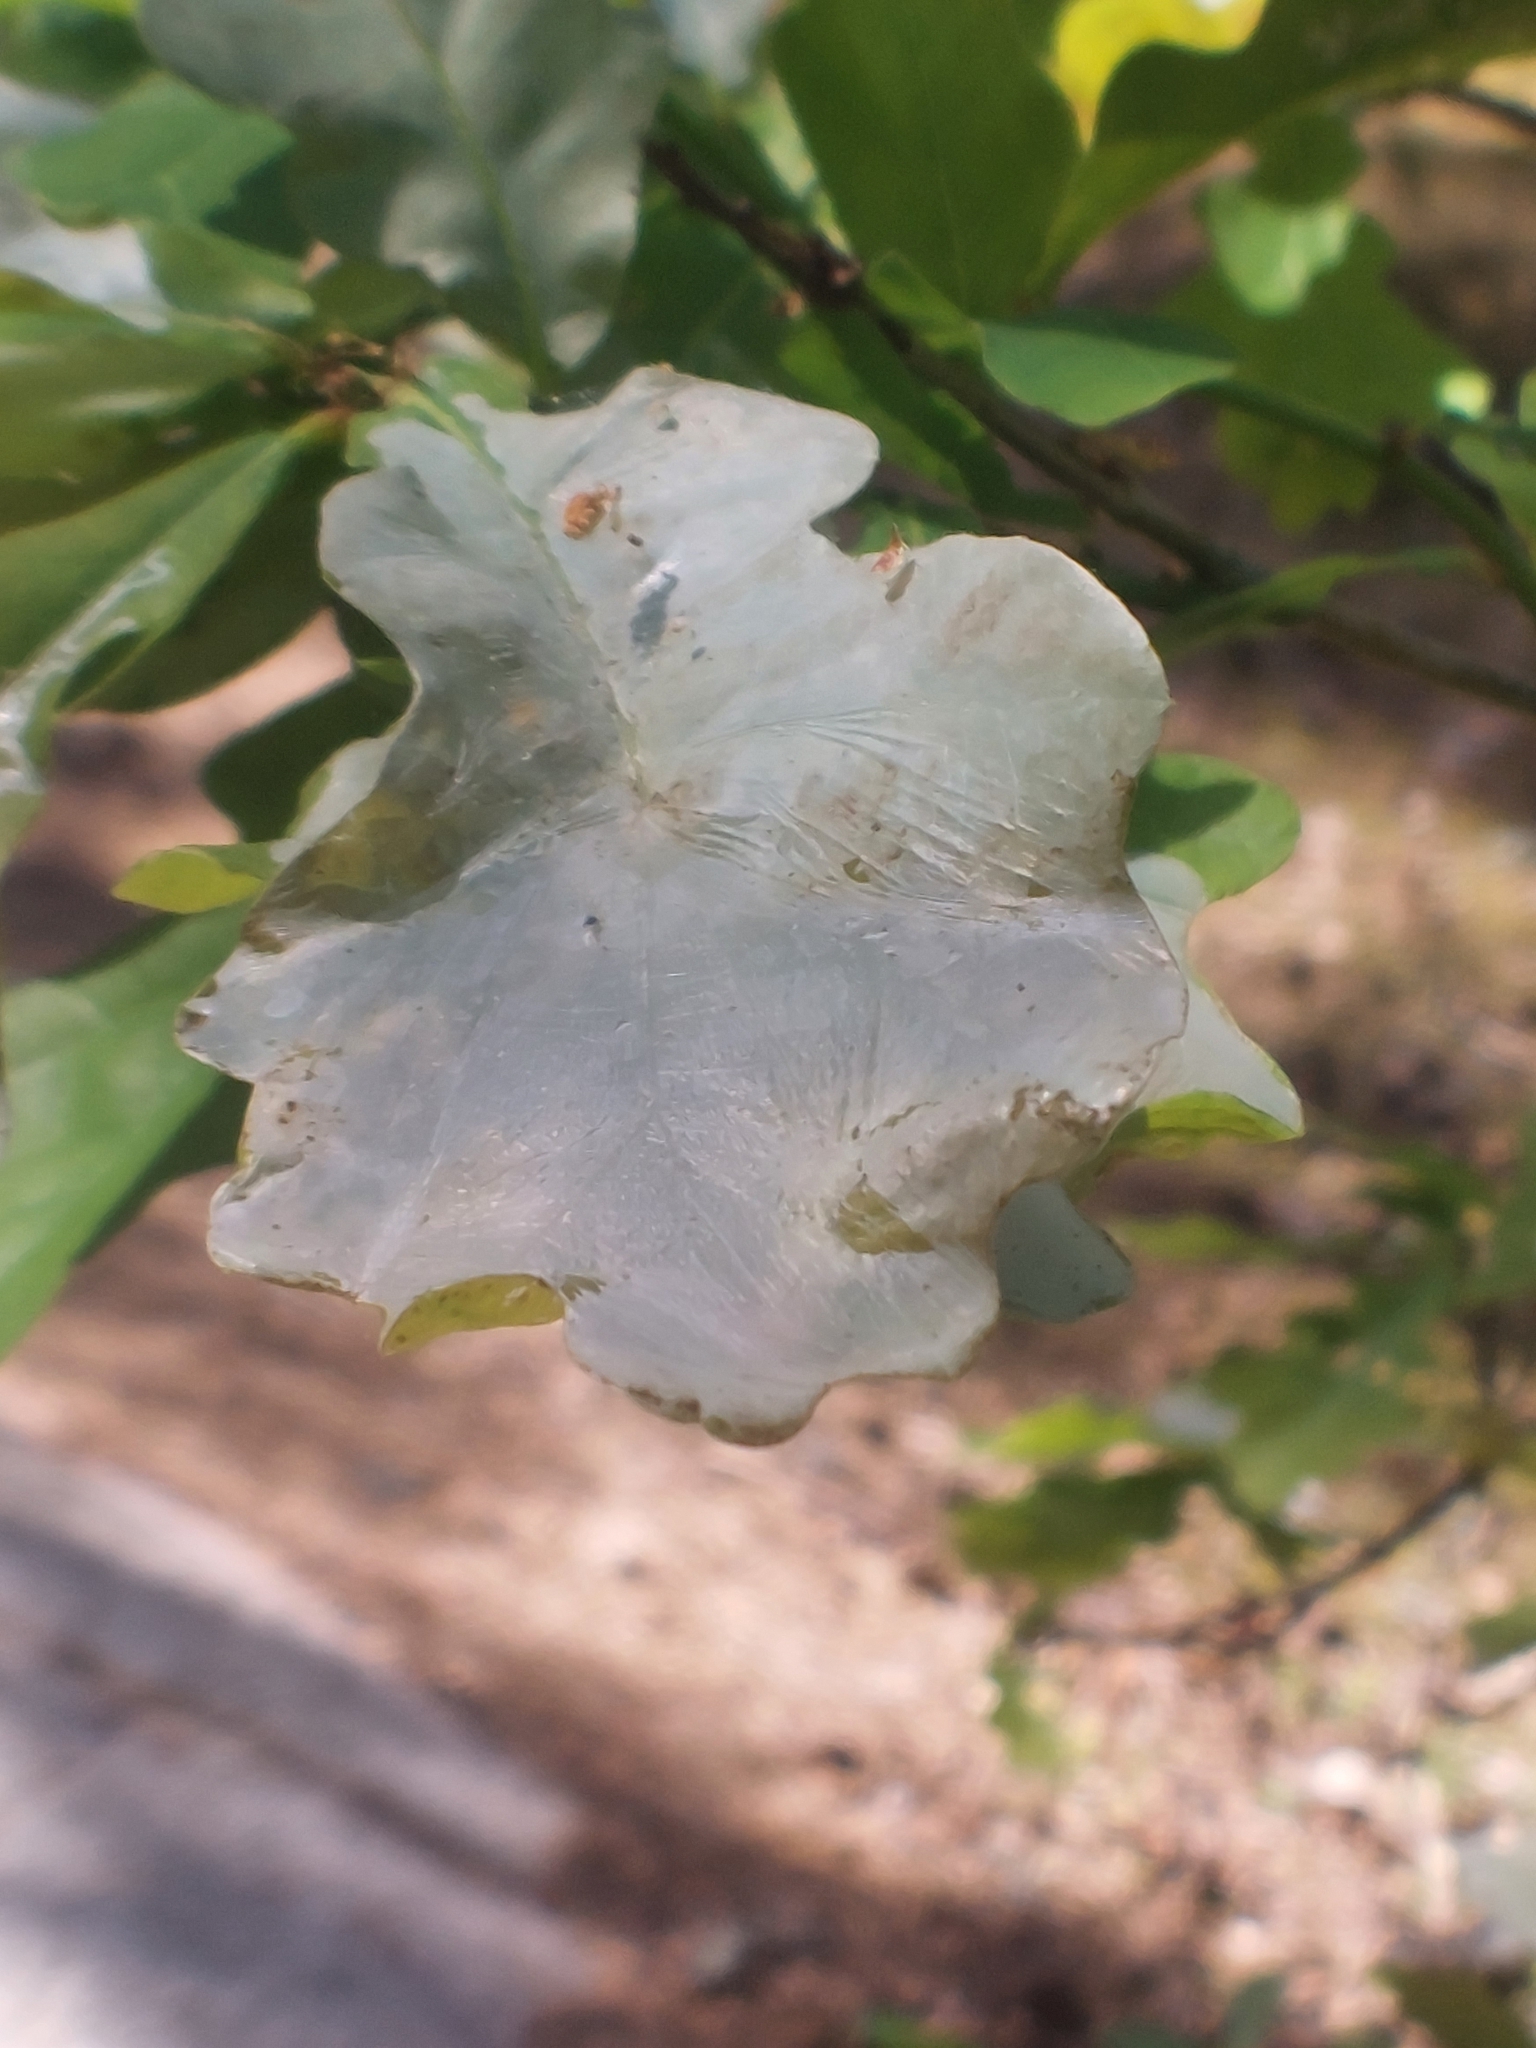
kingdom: Animalia
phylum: Arthropoda
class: Insecta
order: Lepidoptera
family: Gracillariidae
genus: Acrocercops
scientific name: Acrocercops brongniardella
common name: Brown oak slender
